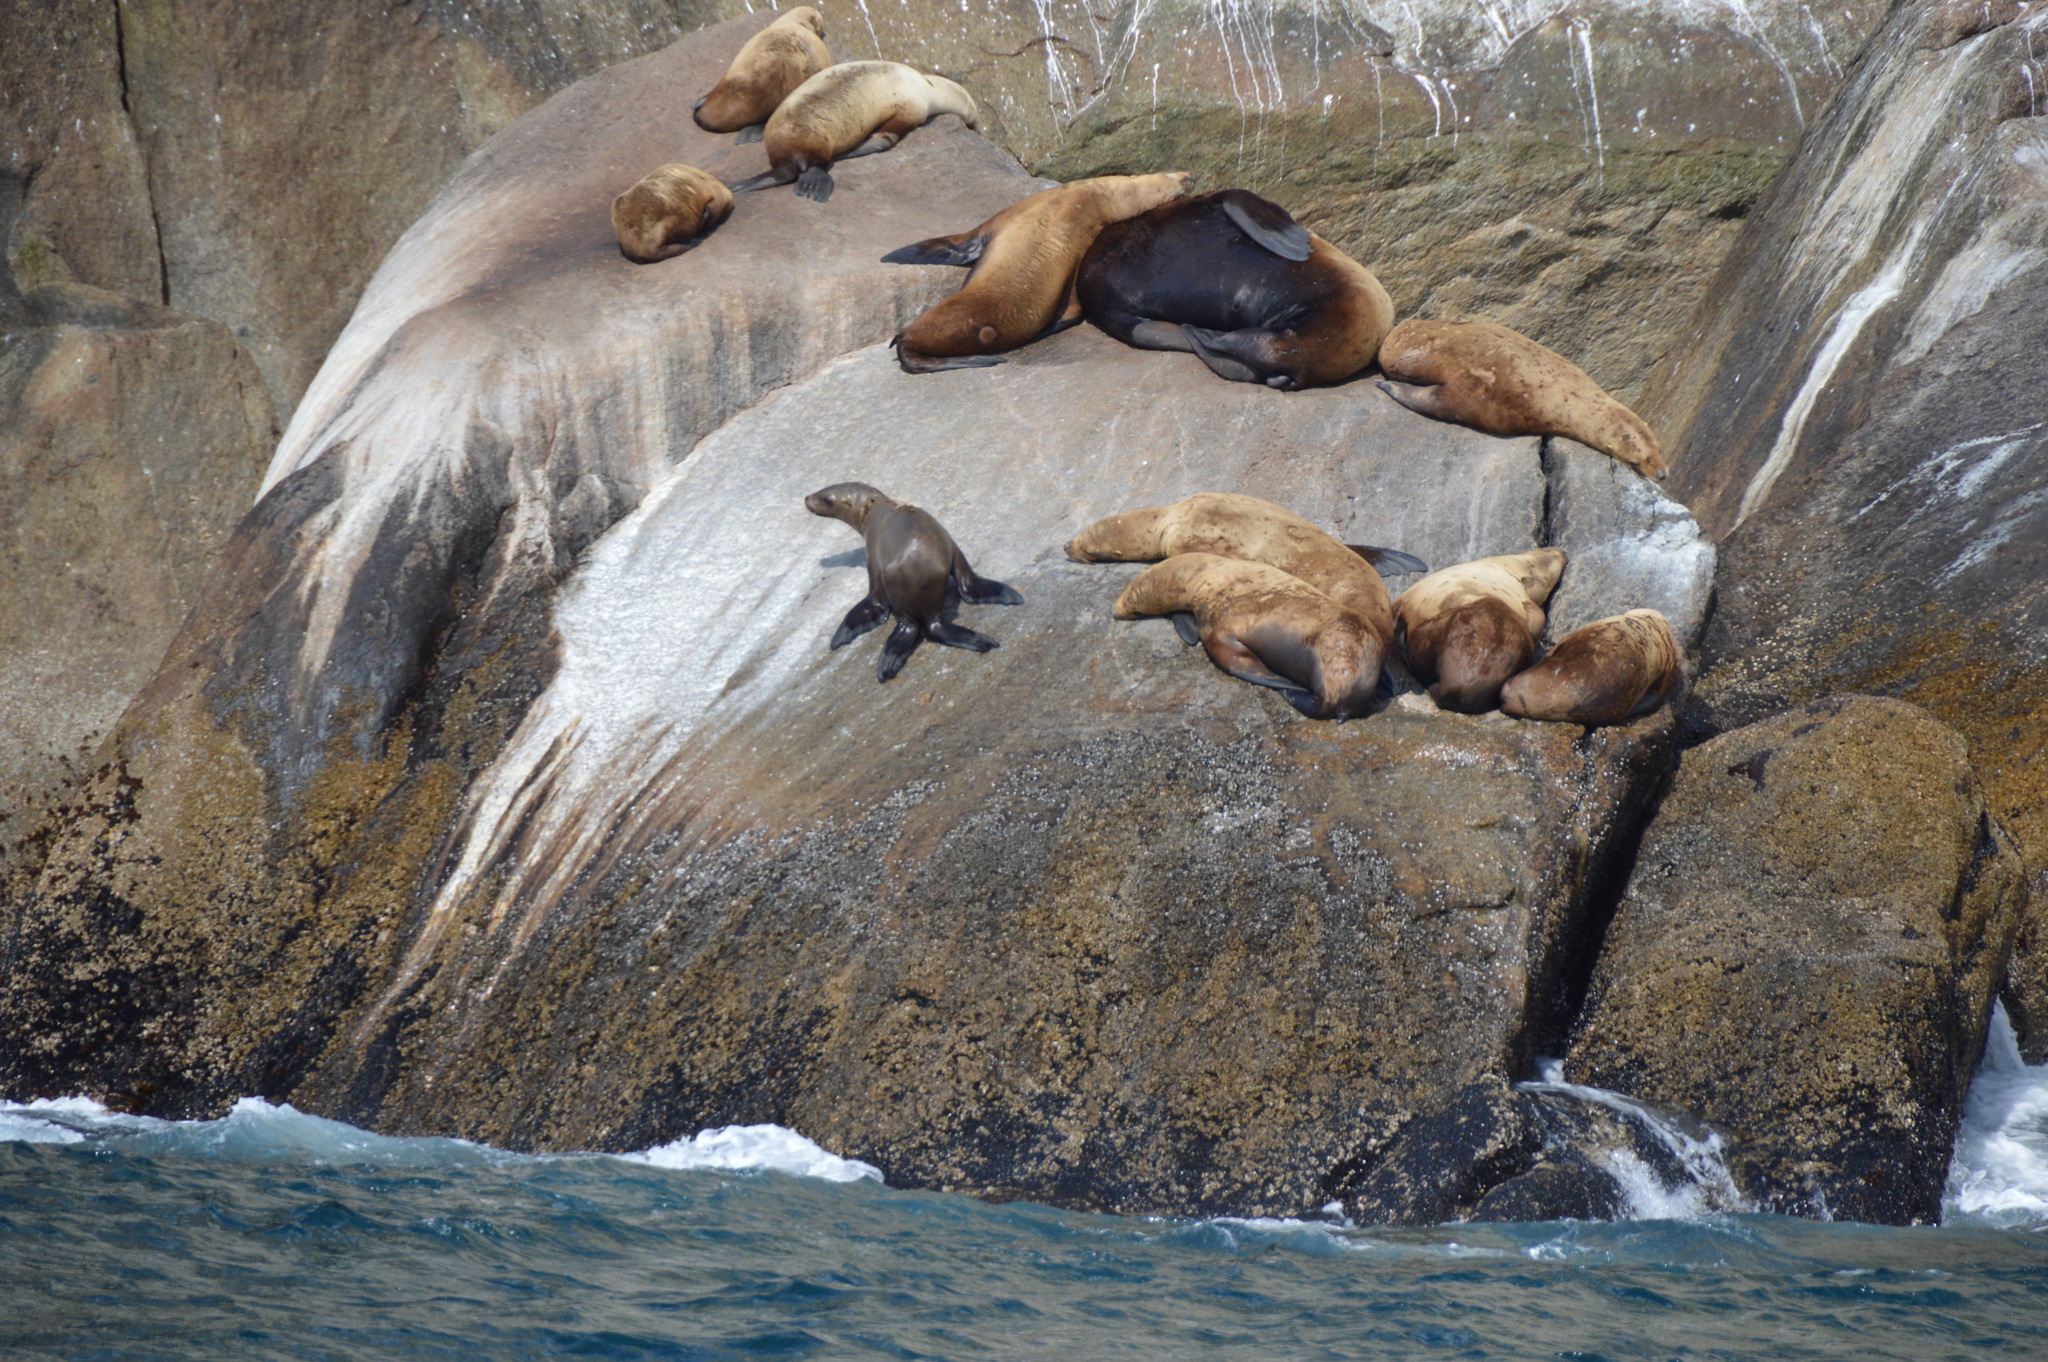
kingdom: Animalia
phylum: Chordata
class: Mammalia
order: Carnivora
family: Otariidae
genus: Eumetopias
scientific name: Eumetopias jubatus
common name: Steller sea lion
